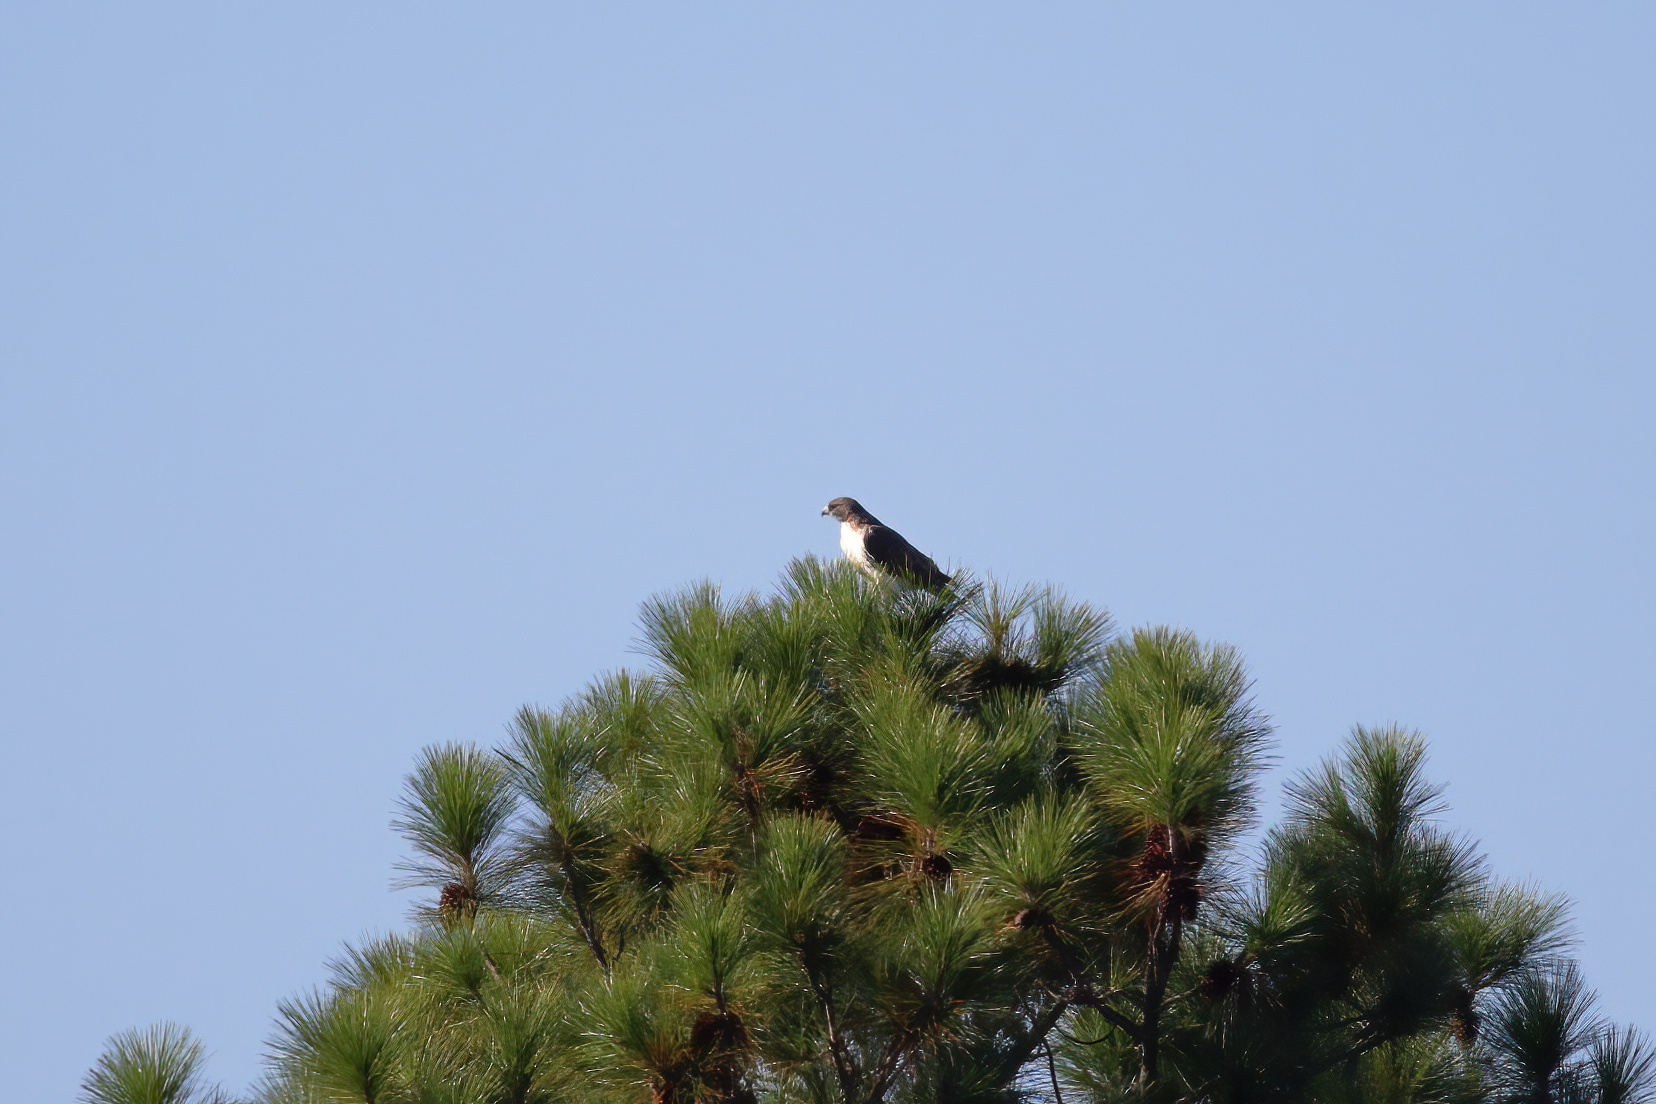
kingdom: Animalia
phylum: Chordata
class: Aves
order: Accipitriformes
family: Accipitridae
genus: Buteo
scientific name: Buteo jamaicensis
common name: Red-tailed hawk
